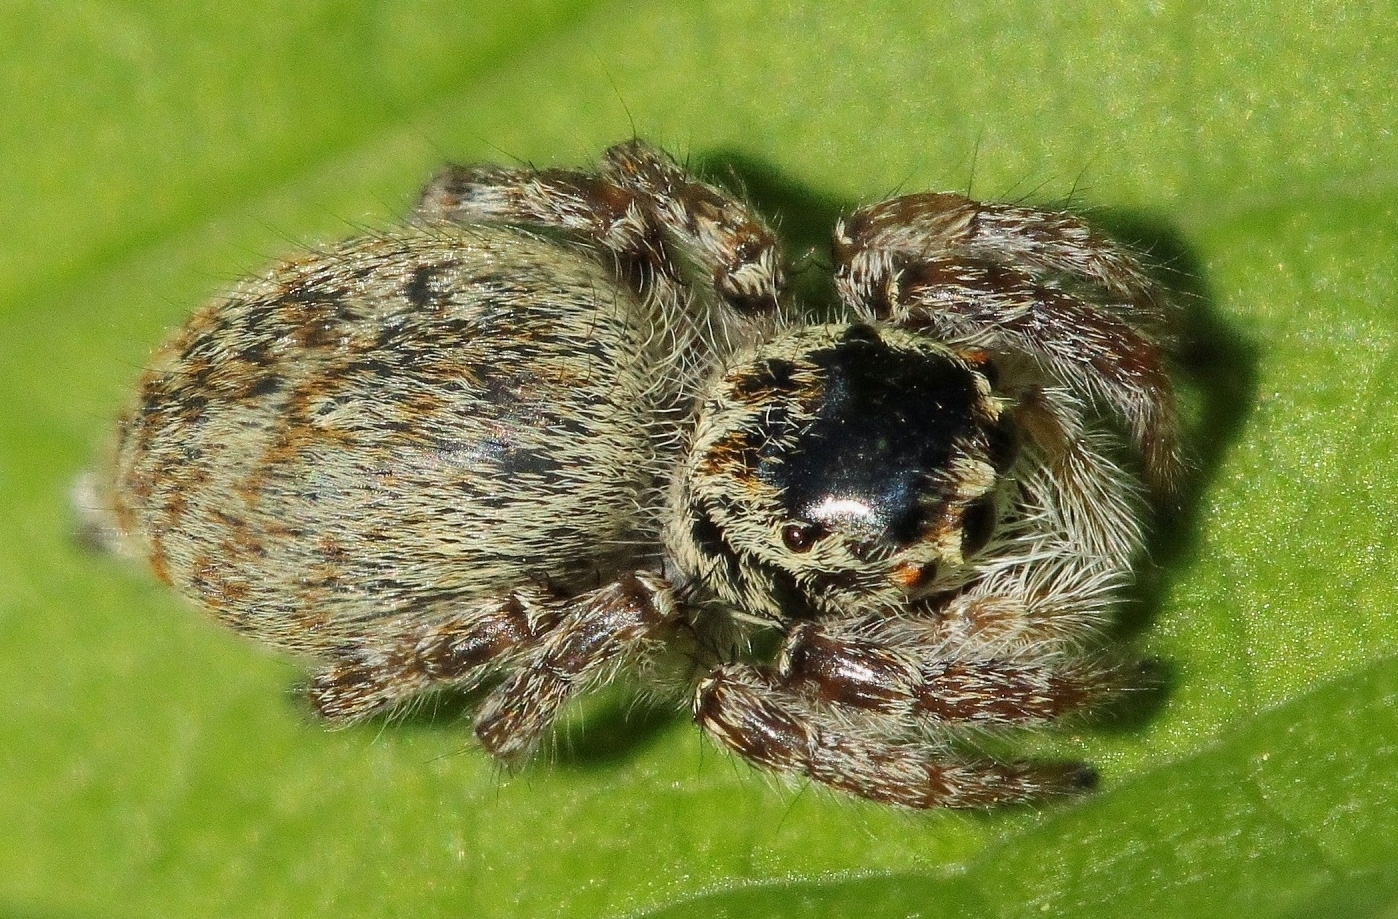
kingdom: Animalia
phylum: Arthropoda
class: Arachnida
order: Araneae
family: Salticidae
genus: Carrhotus
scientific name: Carrhotus xanthogramma
